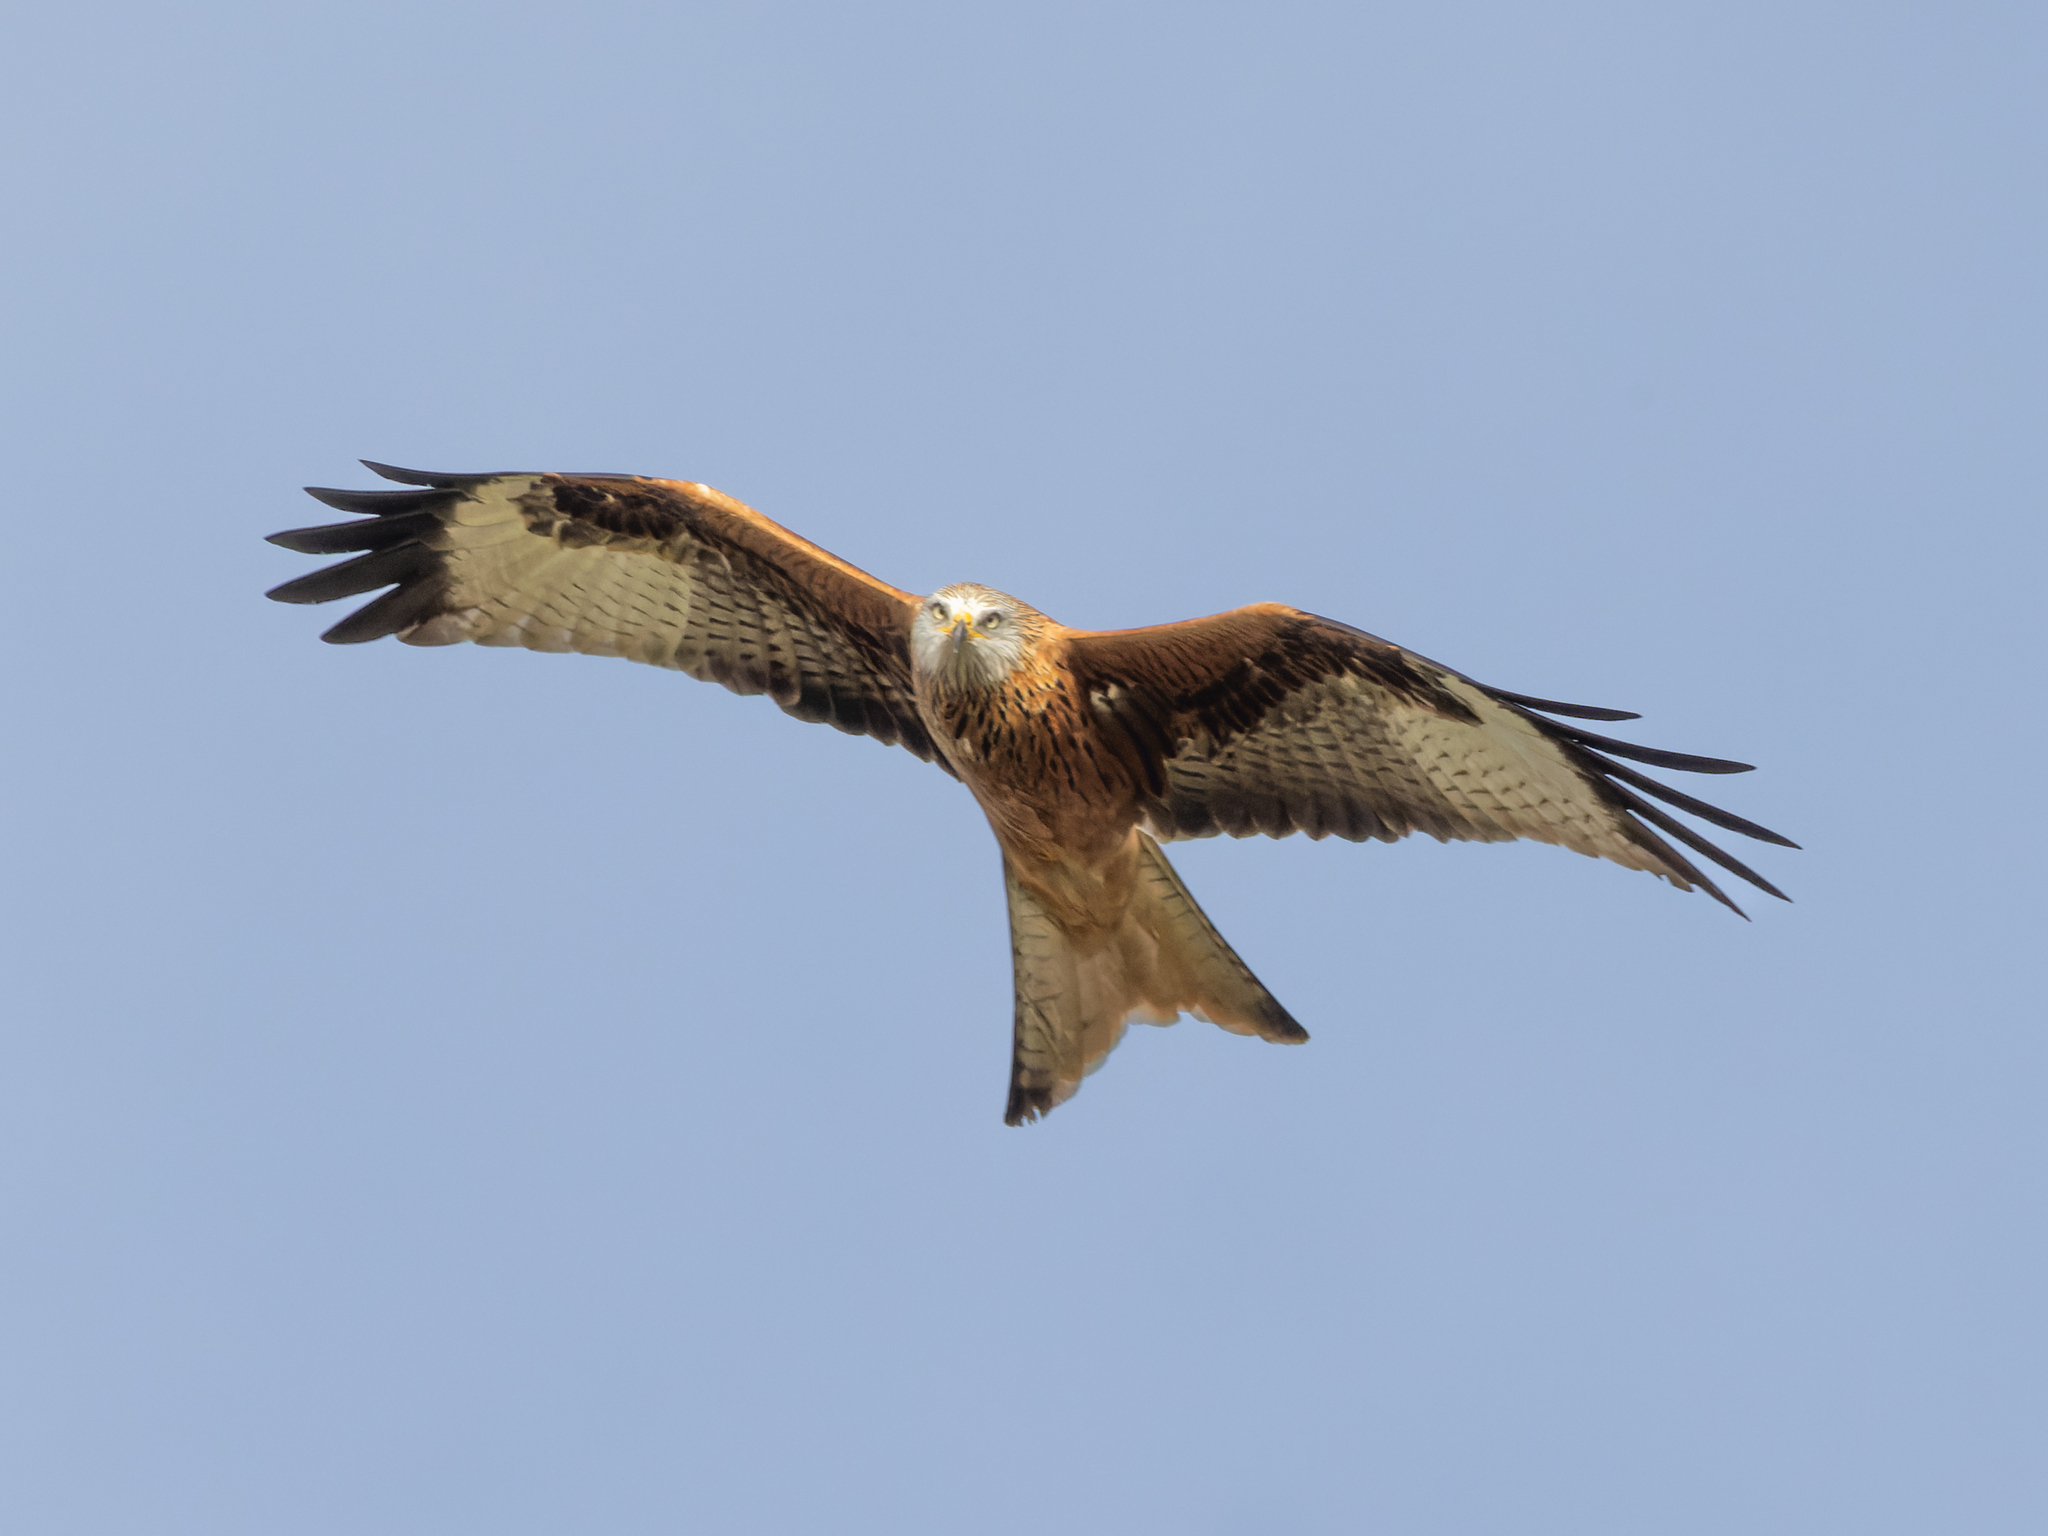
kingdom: Animalia
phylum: Chordata
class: Aves
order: Accipitriformes
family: Accipitridae
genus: Milvus
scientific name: Milvus milvus
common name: Red kite
